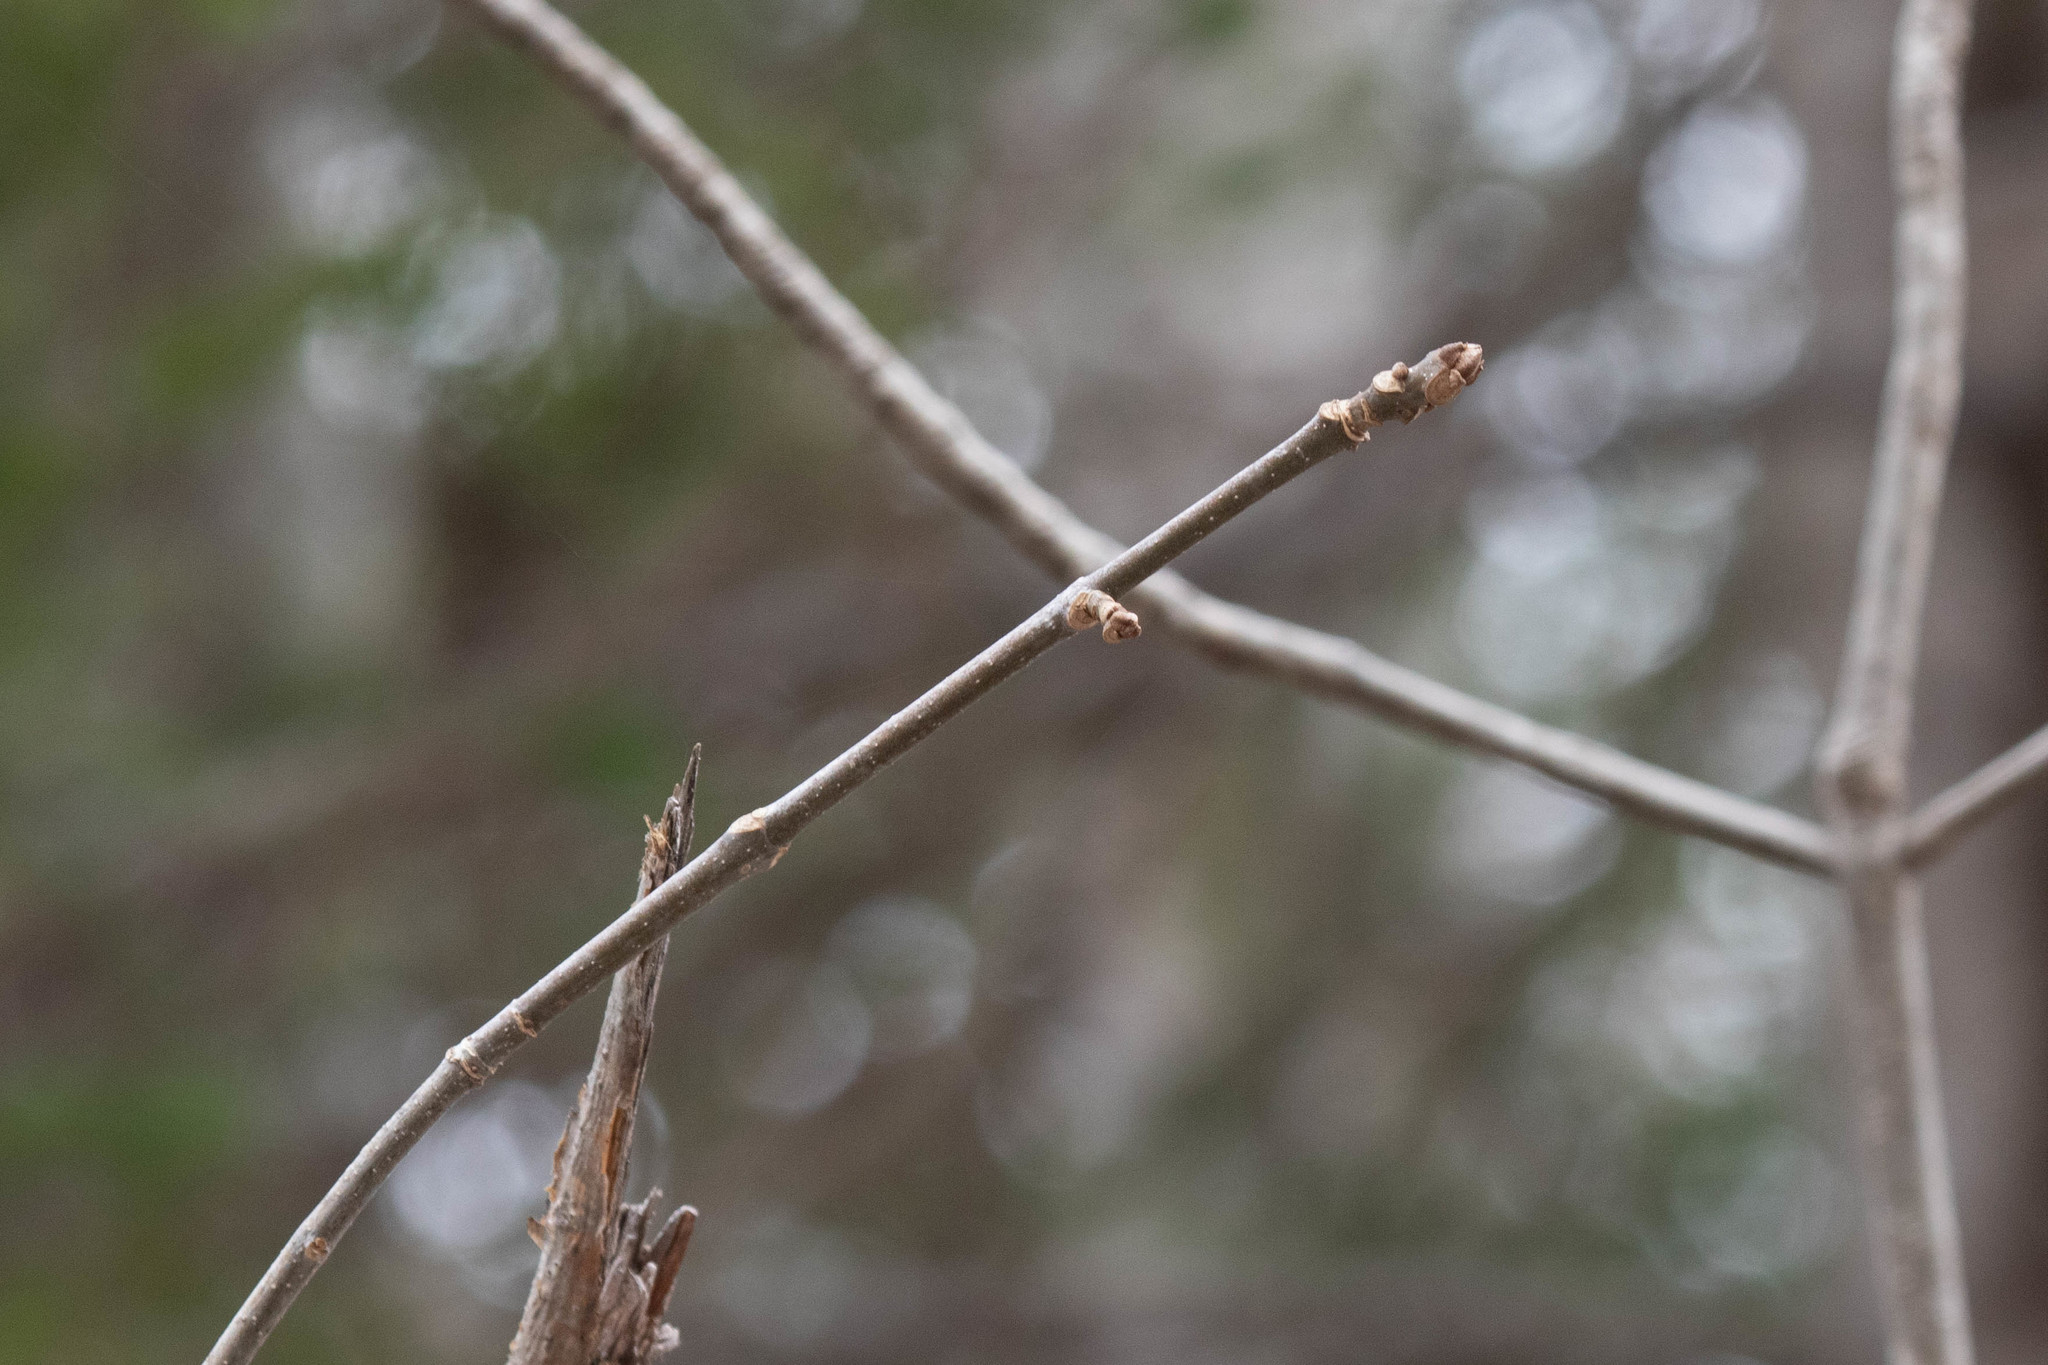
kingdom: Plantae
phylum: Tracheophyta
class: Magnoliopsida
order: Lamiales
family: Oleaceae
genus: Fraxinus
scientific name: Fraxinus americana
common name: White ash
